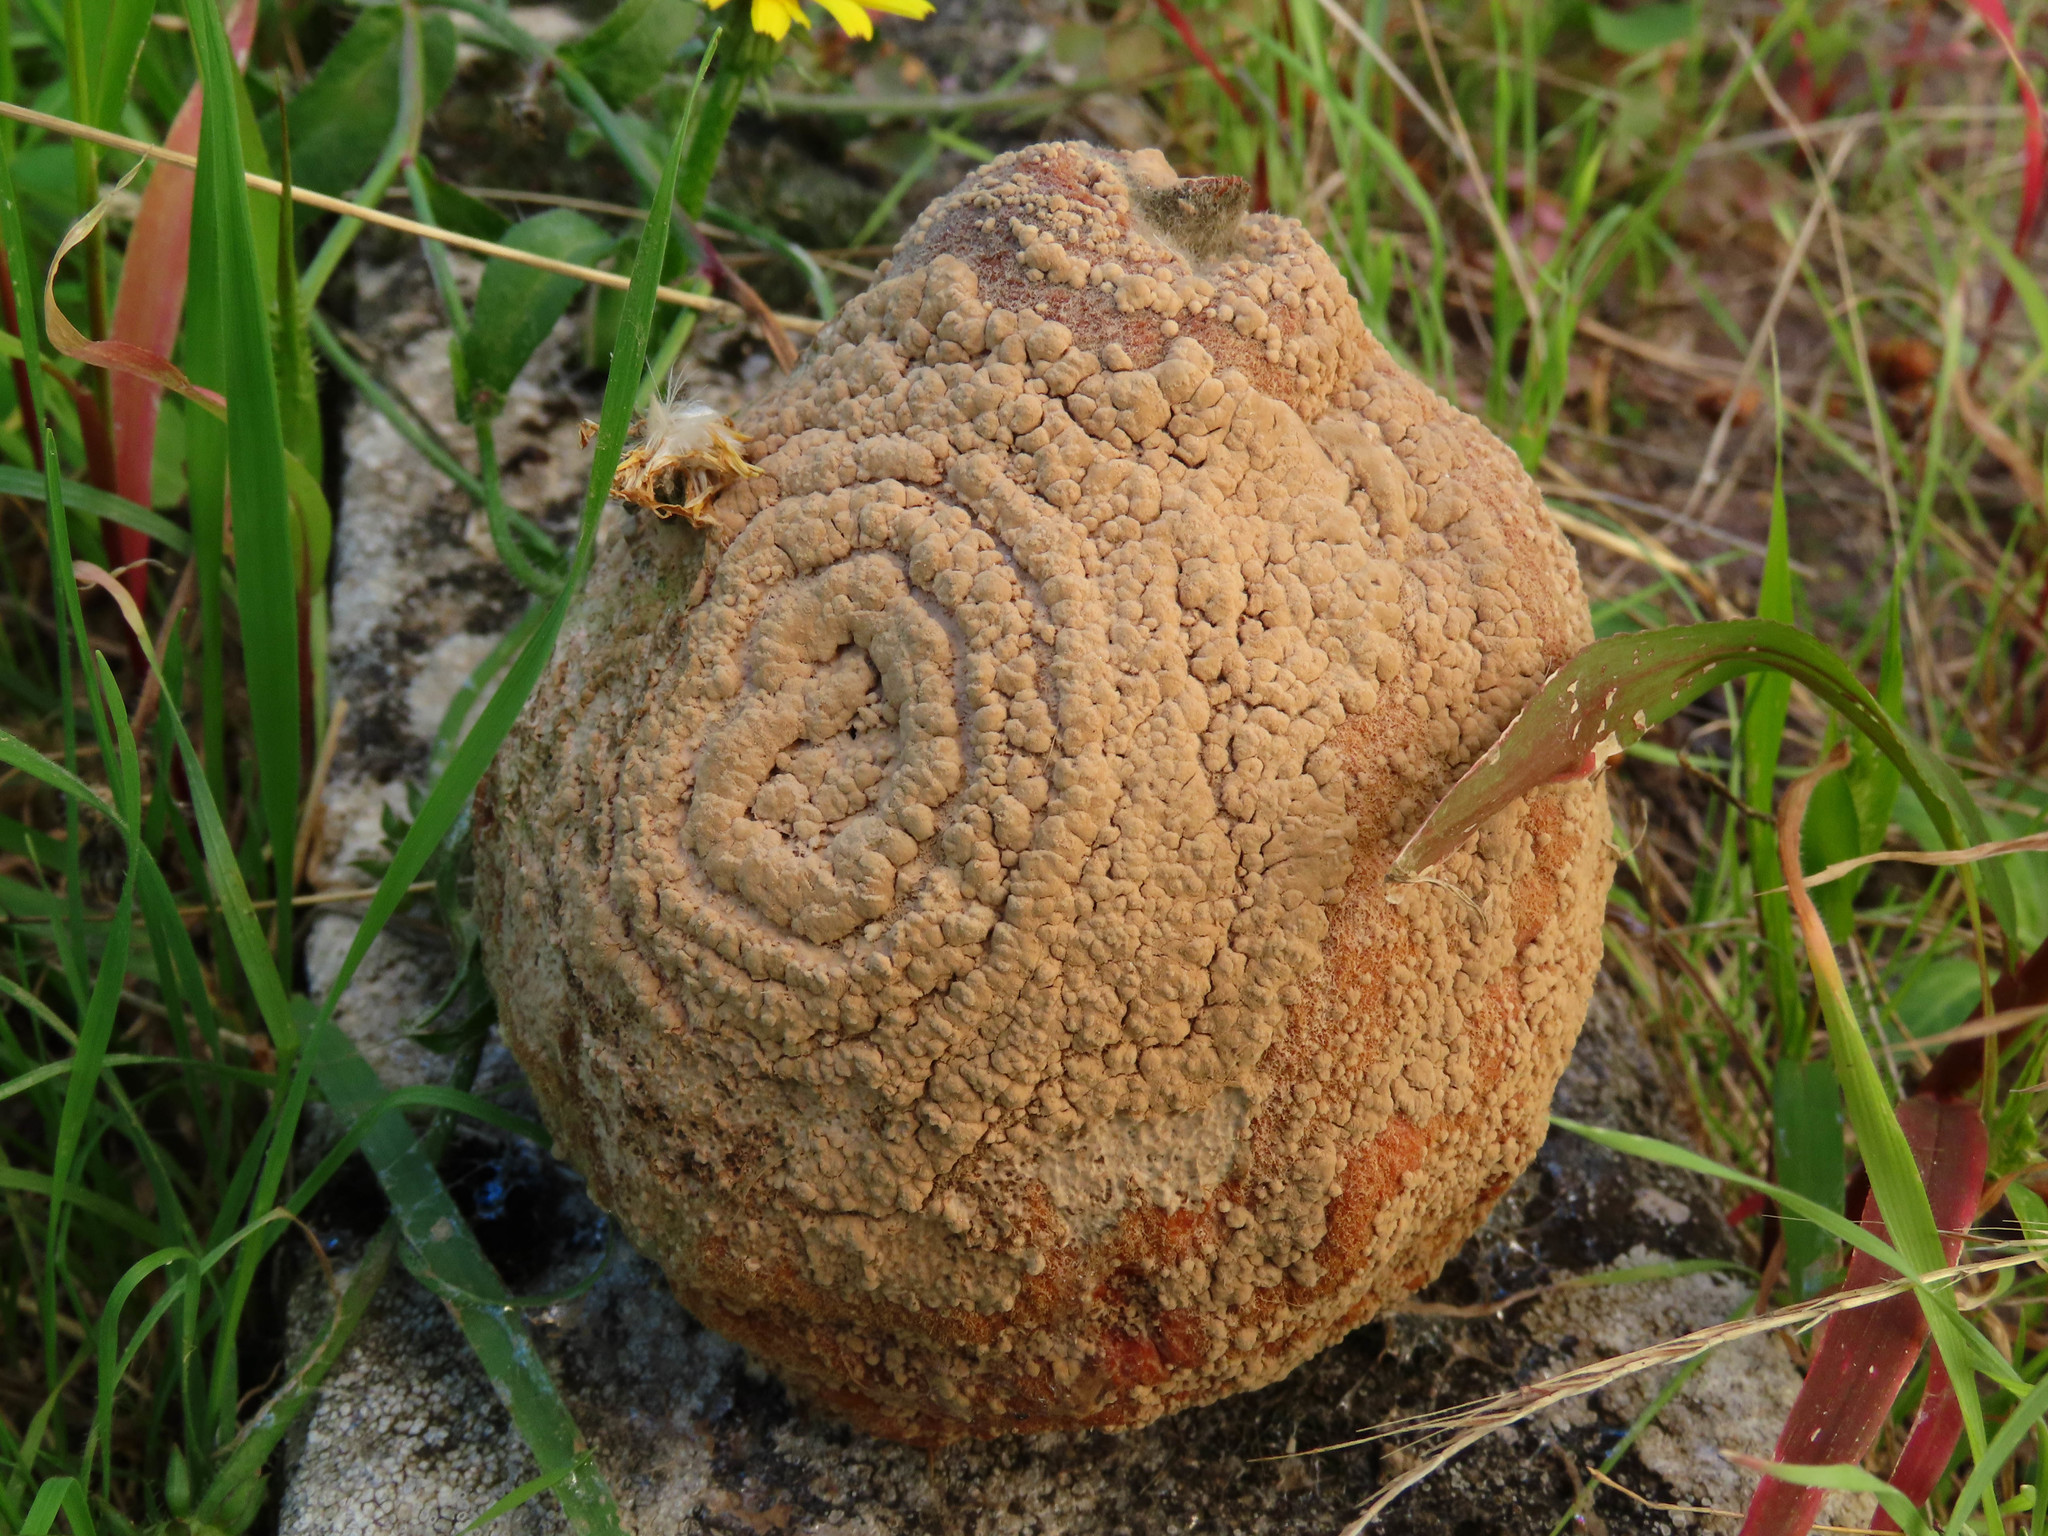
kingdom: Fungi
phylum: Ascomycota
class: Leotiomycetes
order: Helotiales
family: Sclerotiniaceae
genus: Monilinia
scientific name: Monilinia fructigena
